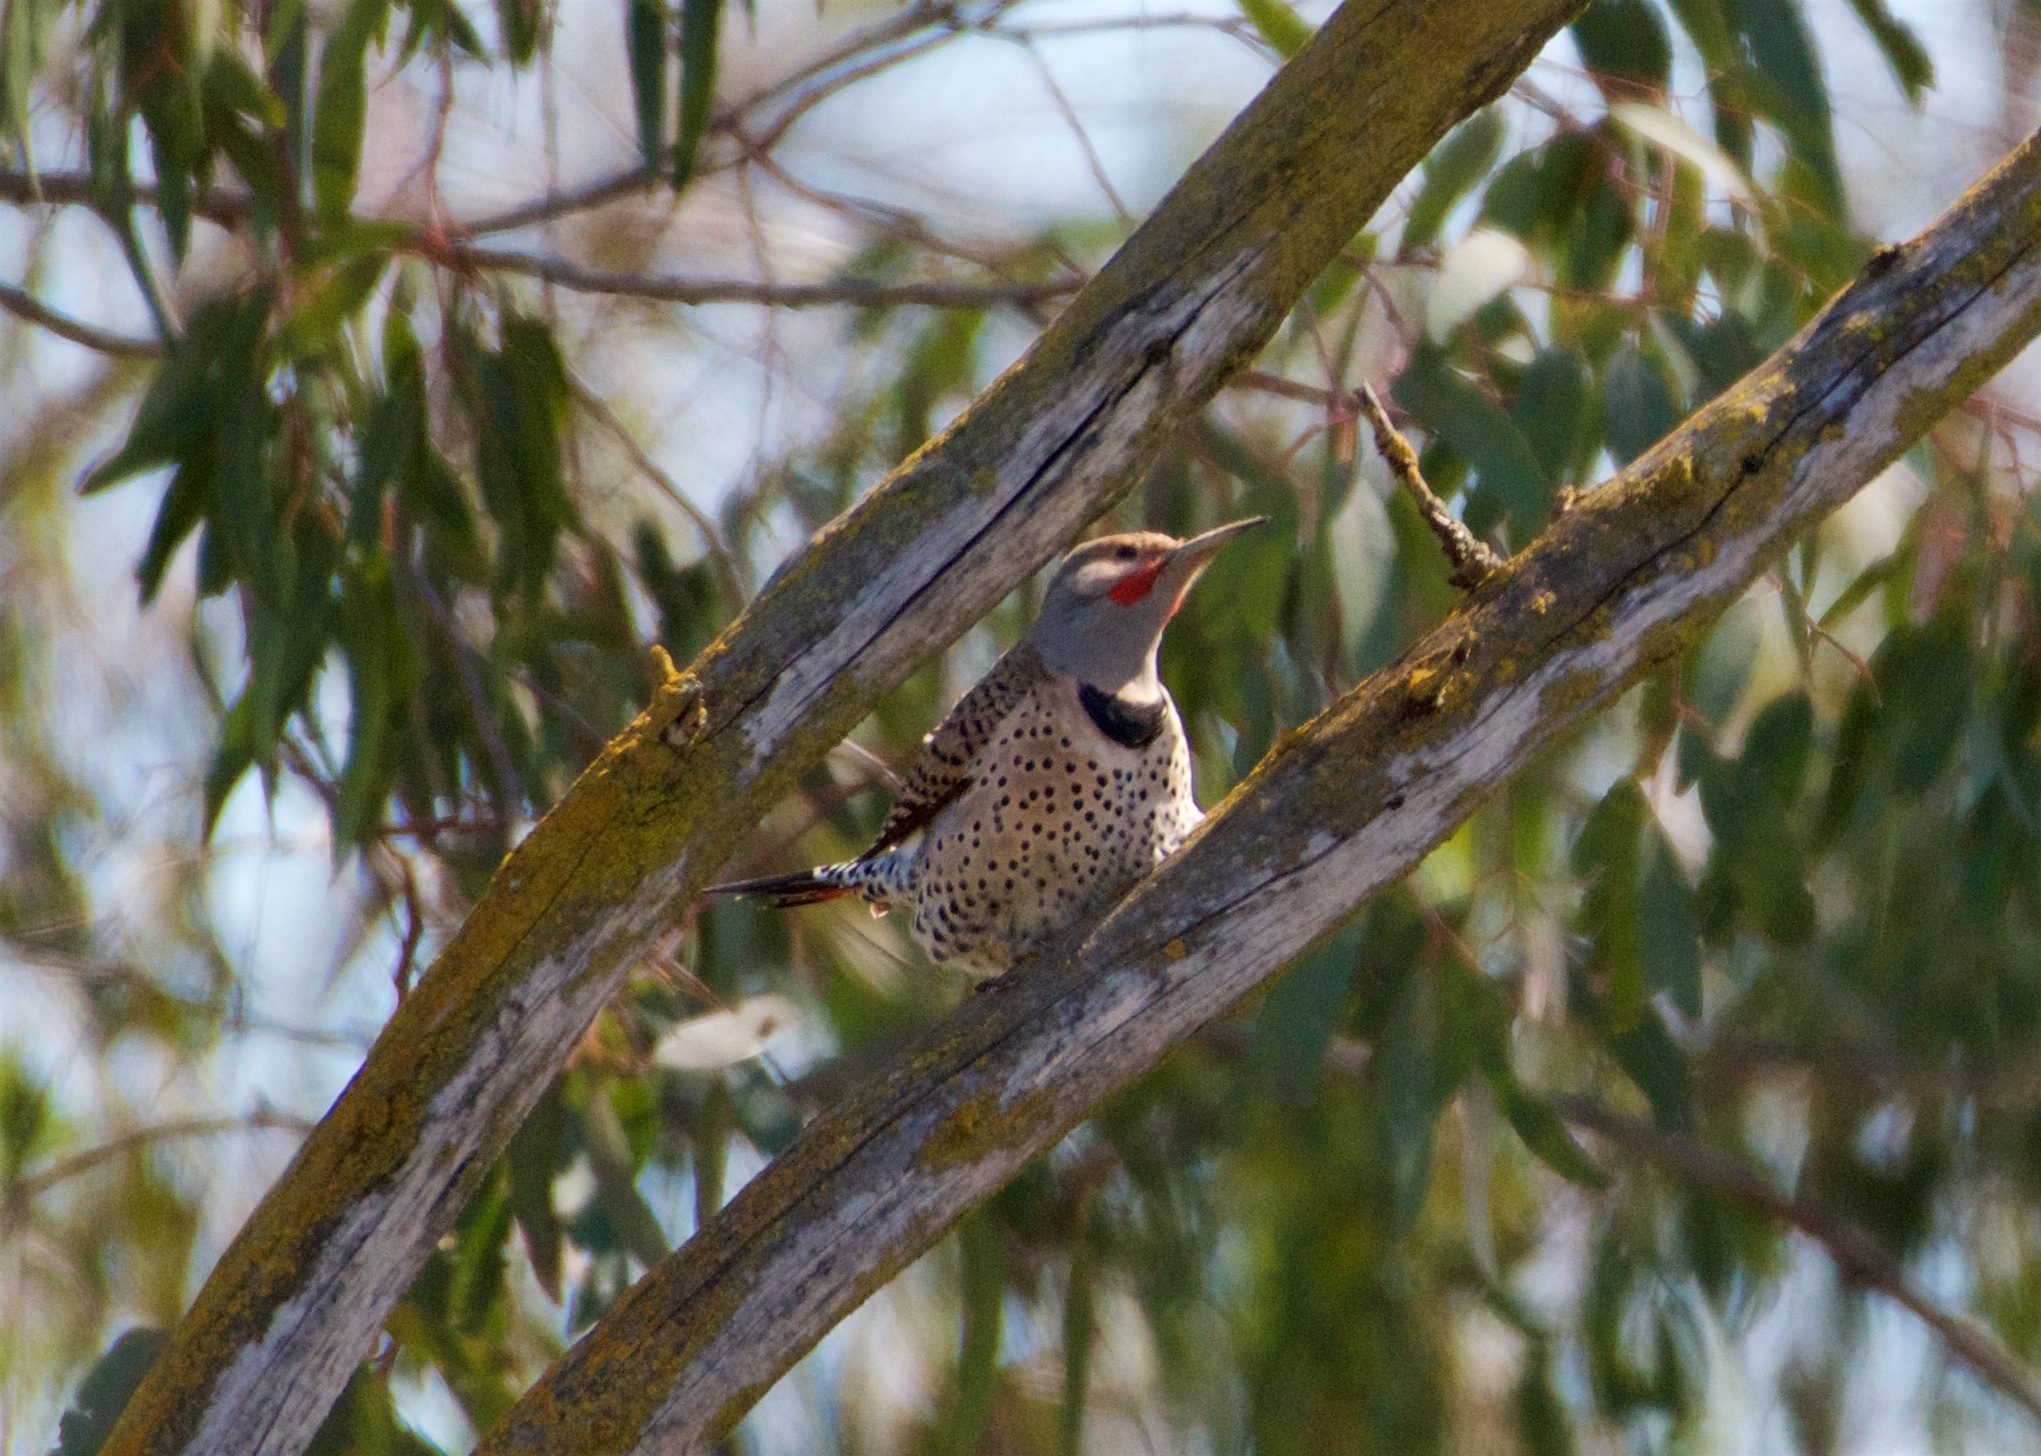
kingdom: Animalia
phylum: Chordata
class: Aves
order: Piciformes
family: Picidae
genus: Colaptes
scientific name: Colaptes auratus
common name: Northern flicker
